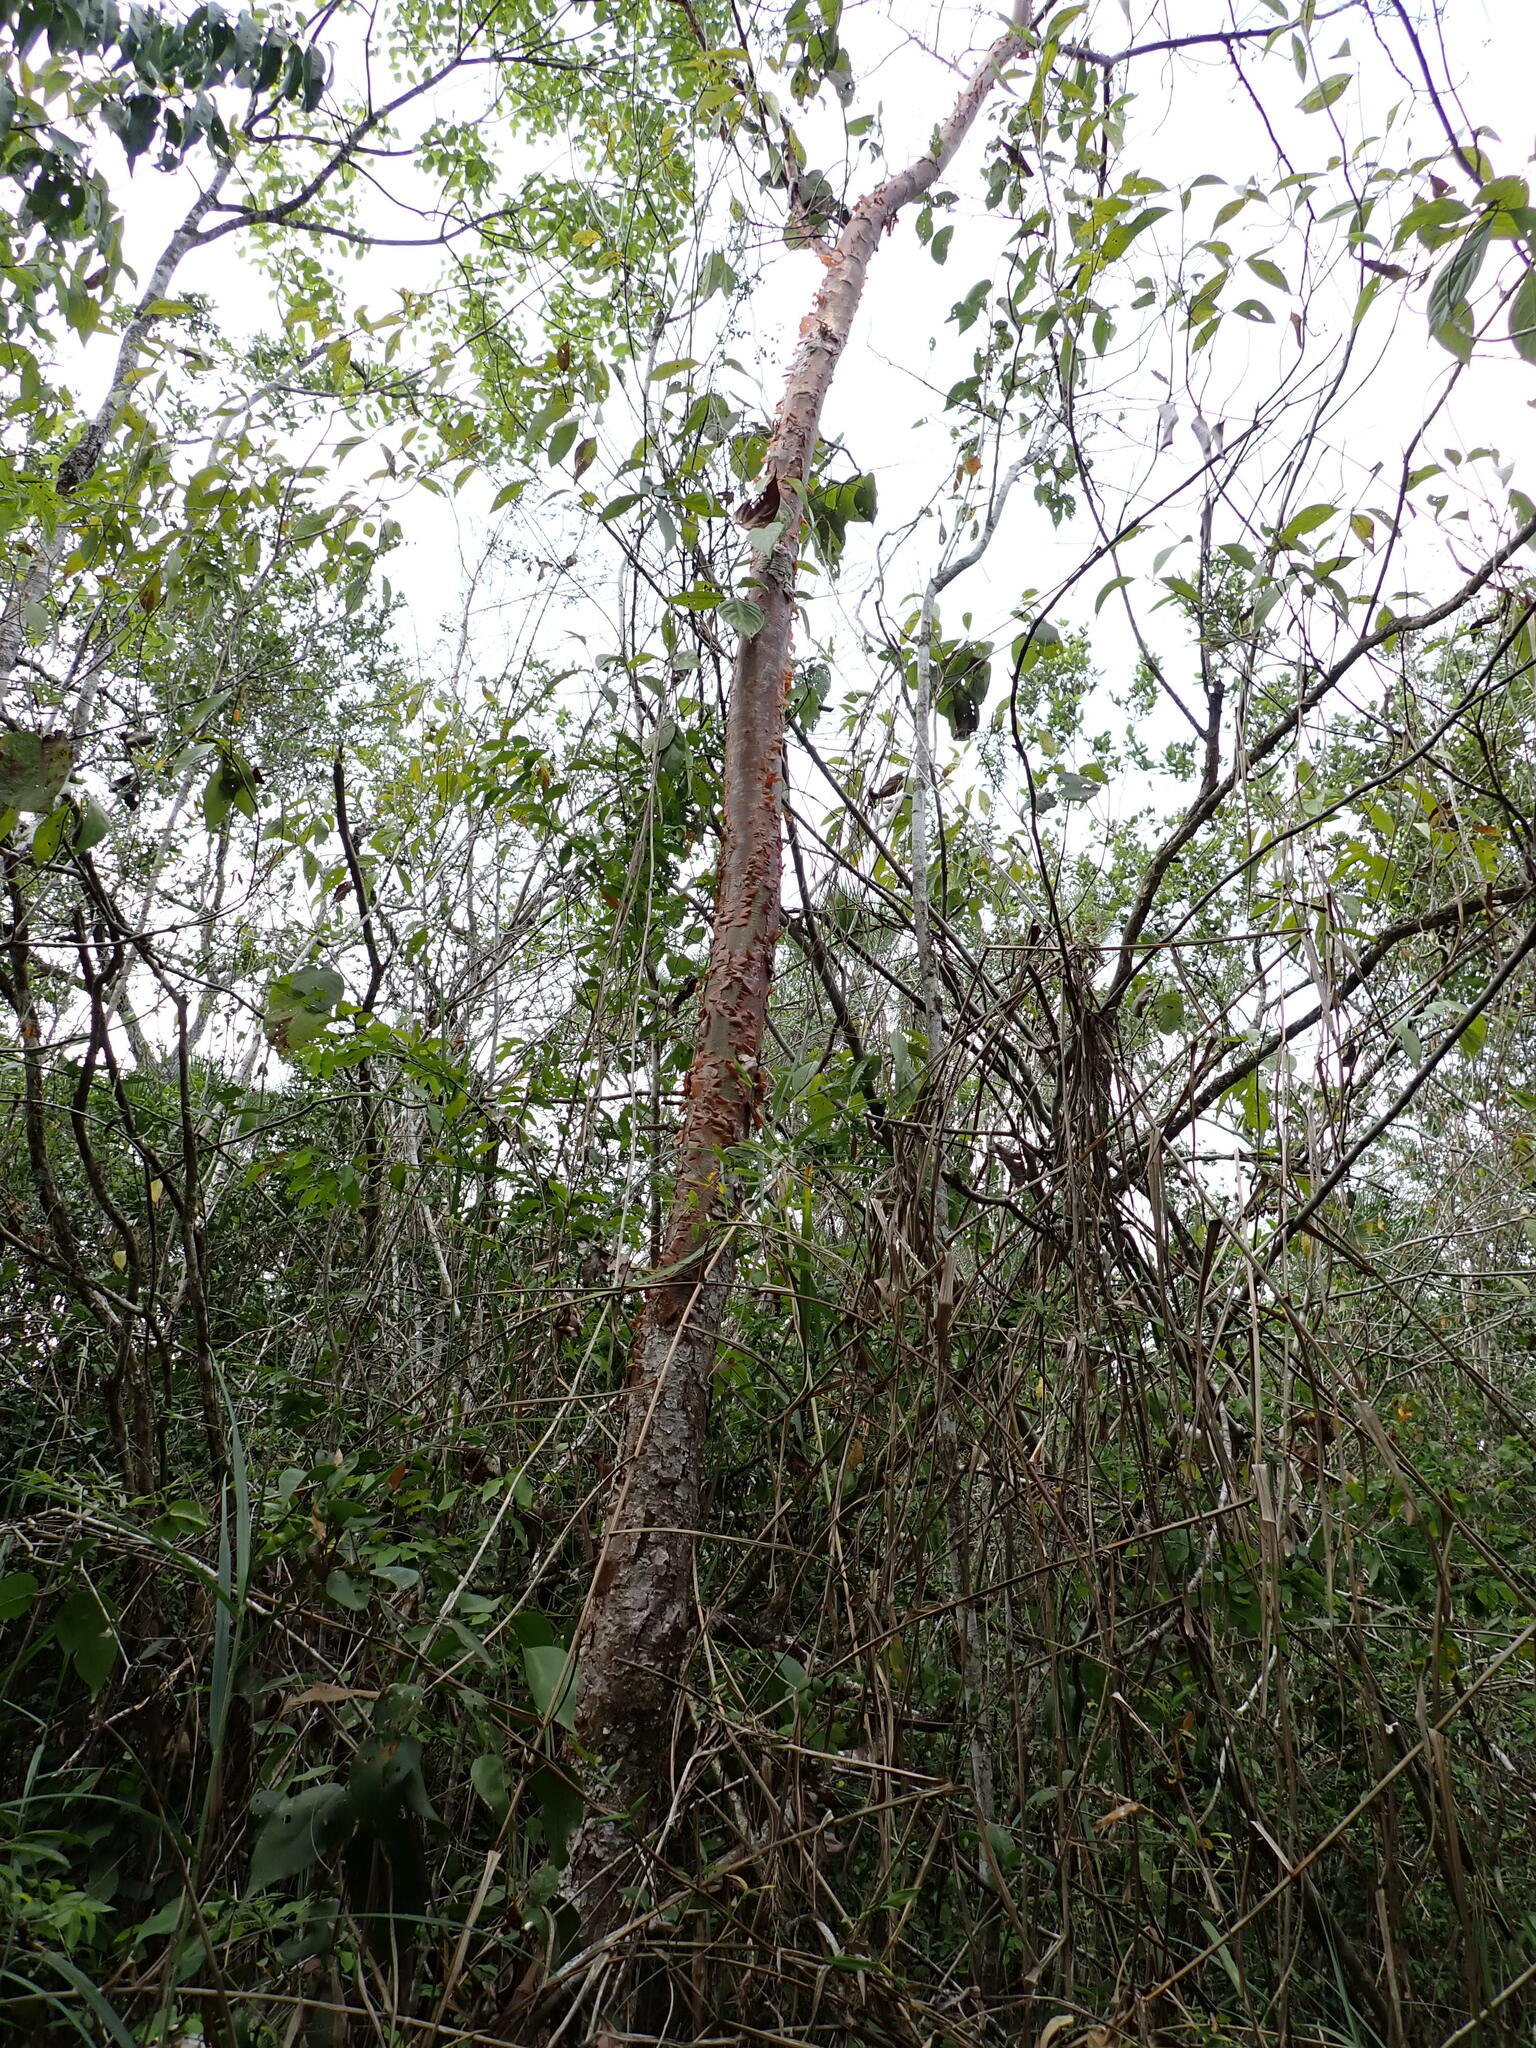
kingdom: Plantae
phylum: Tracheophyta
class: Magnoliopsida
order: Sapindales
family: Burseraceae
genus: Bursera
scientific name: Bursera simaruba
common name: Turpentine tree
